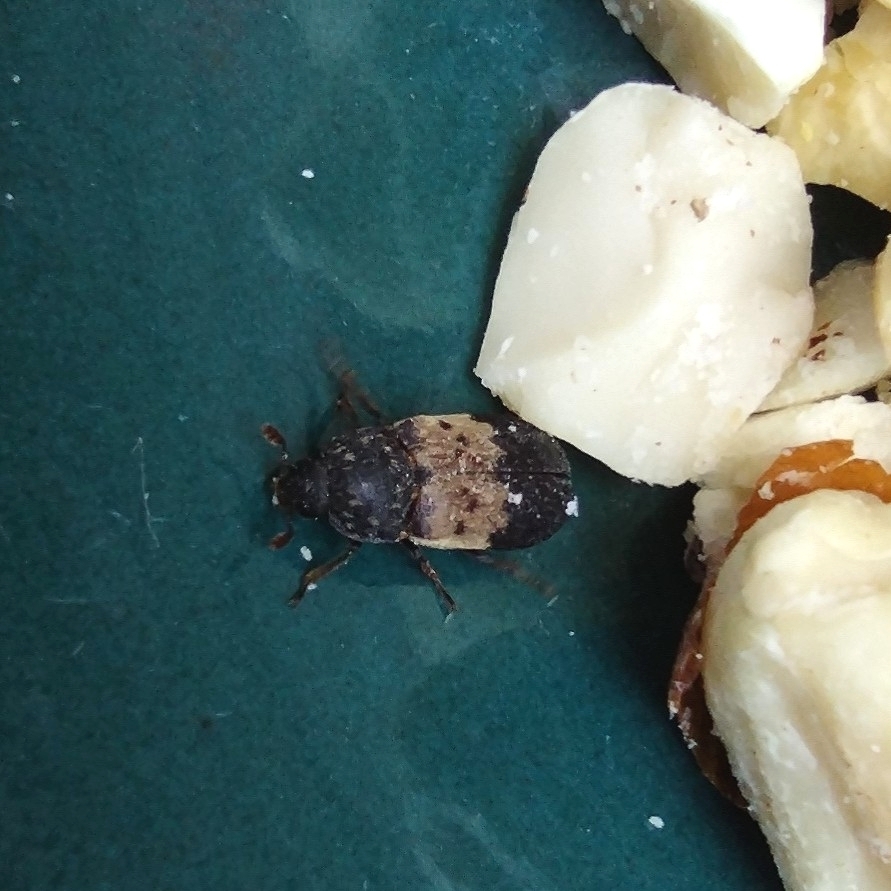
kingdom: Animalia
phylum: Arthropoda
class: Insecta
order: Coleoptera
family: Dermestidae
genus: Dermestes
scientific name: Dermestes lardarius
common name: Larder beetle
